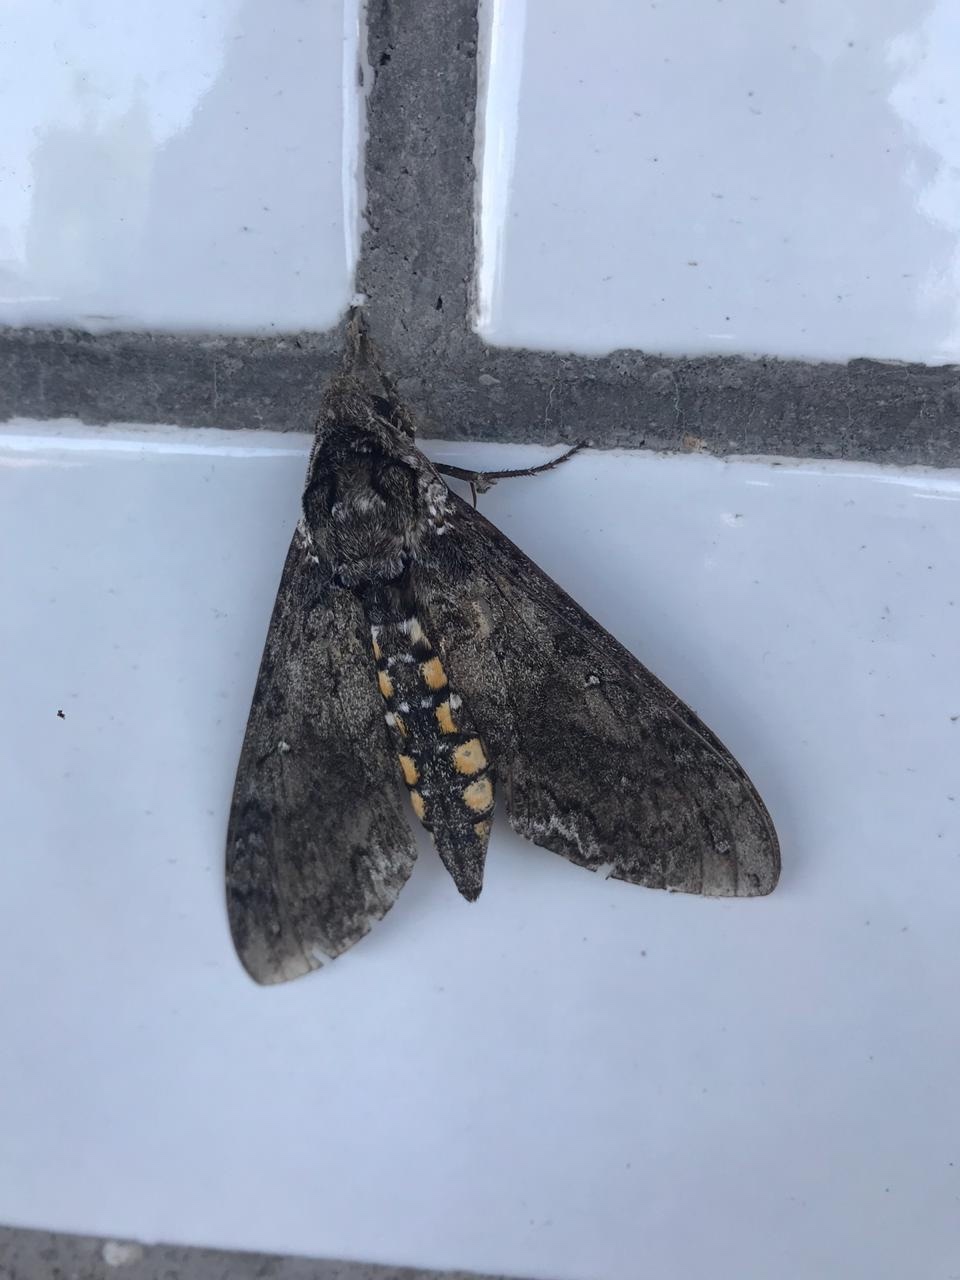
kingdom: Animalia
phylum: Arthropoda
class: Insecta
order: Lepidoptera
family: Sphingidae
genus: Manduca
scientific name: Manduca sexta
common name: Carolina sphinx
